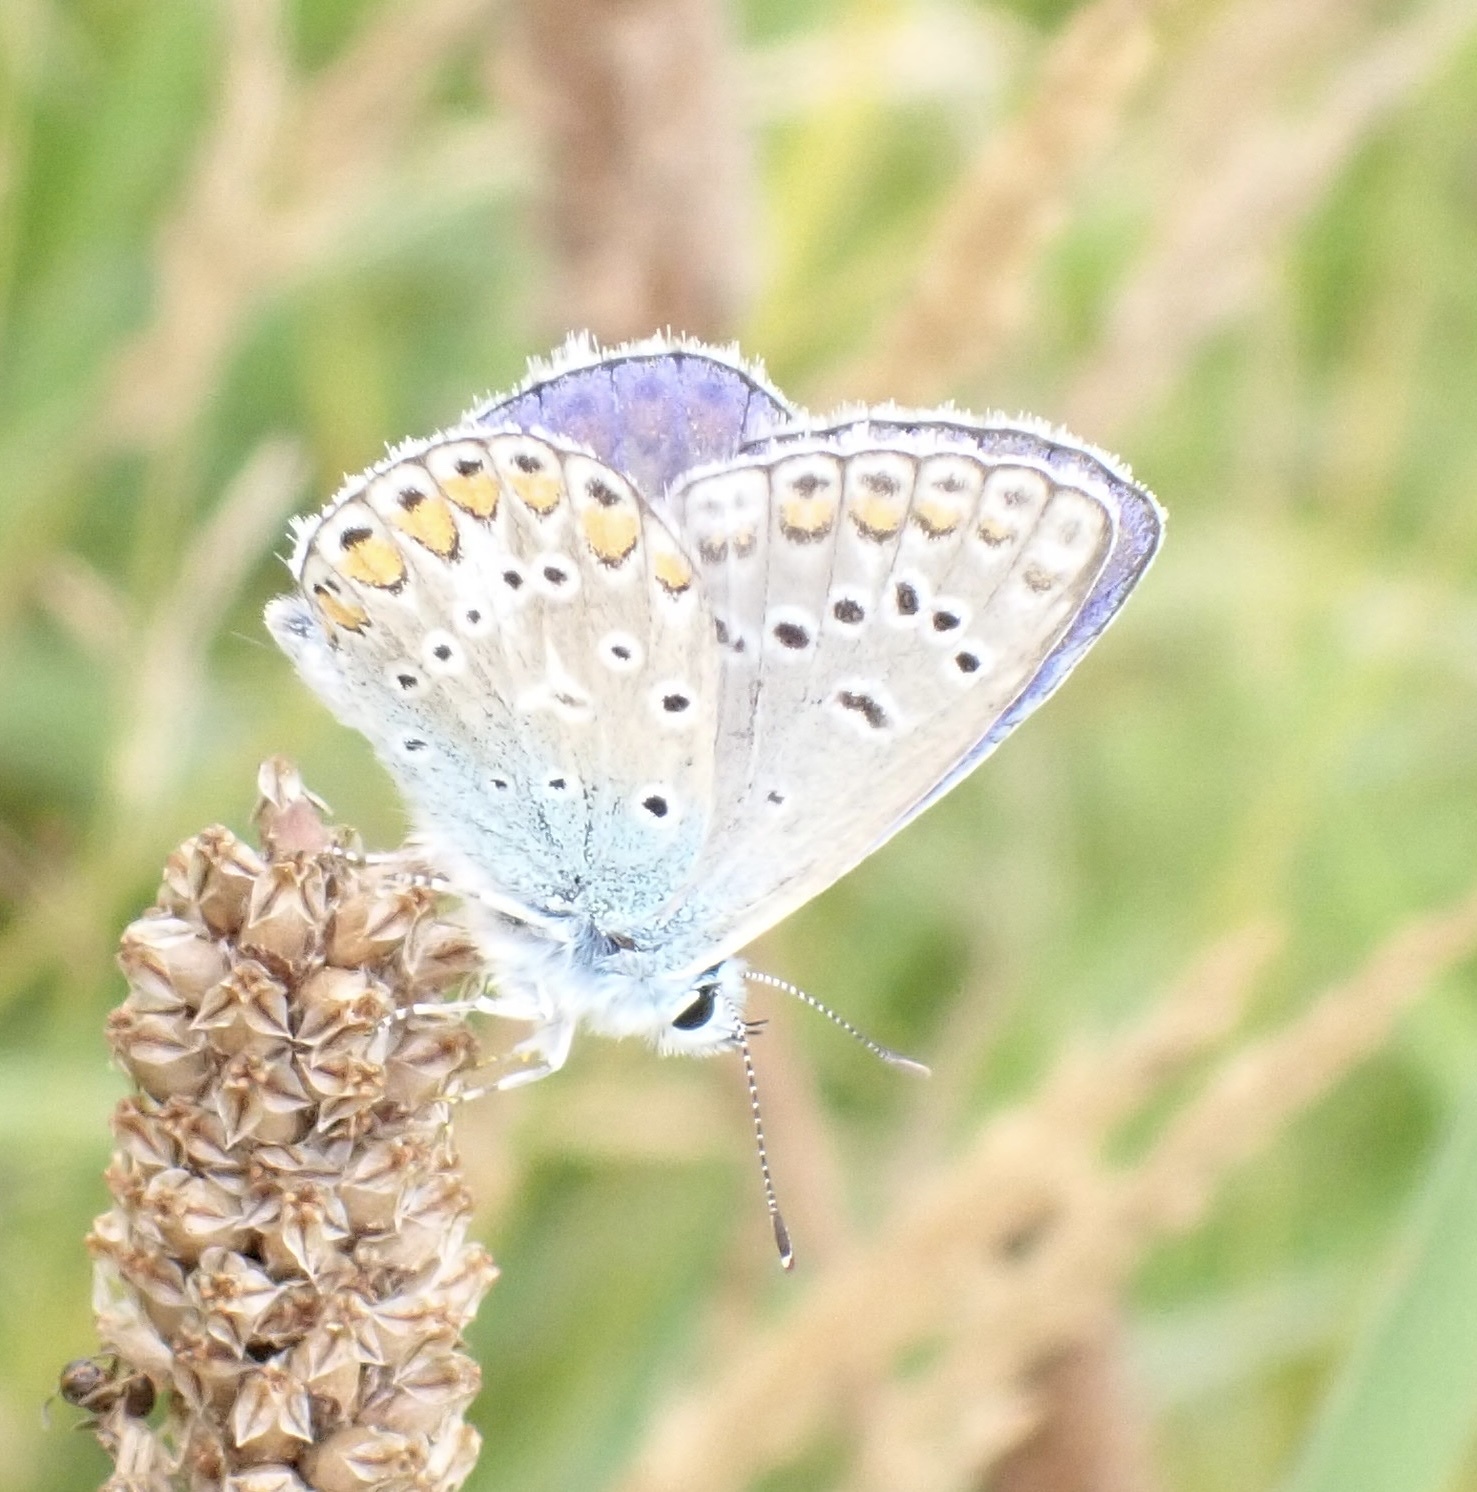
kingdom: Animalia
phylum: Arthropoda
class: Insecta
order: Lepidoptera
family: Lycaenidae
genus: Polyommatus
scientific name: Polyommatus icarus
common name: Common blue
